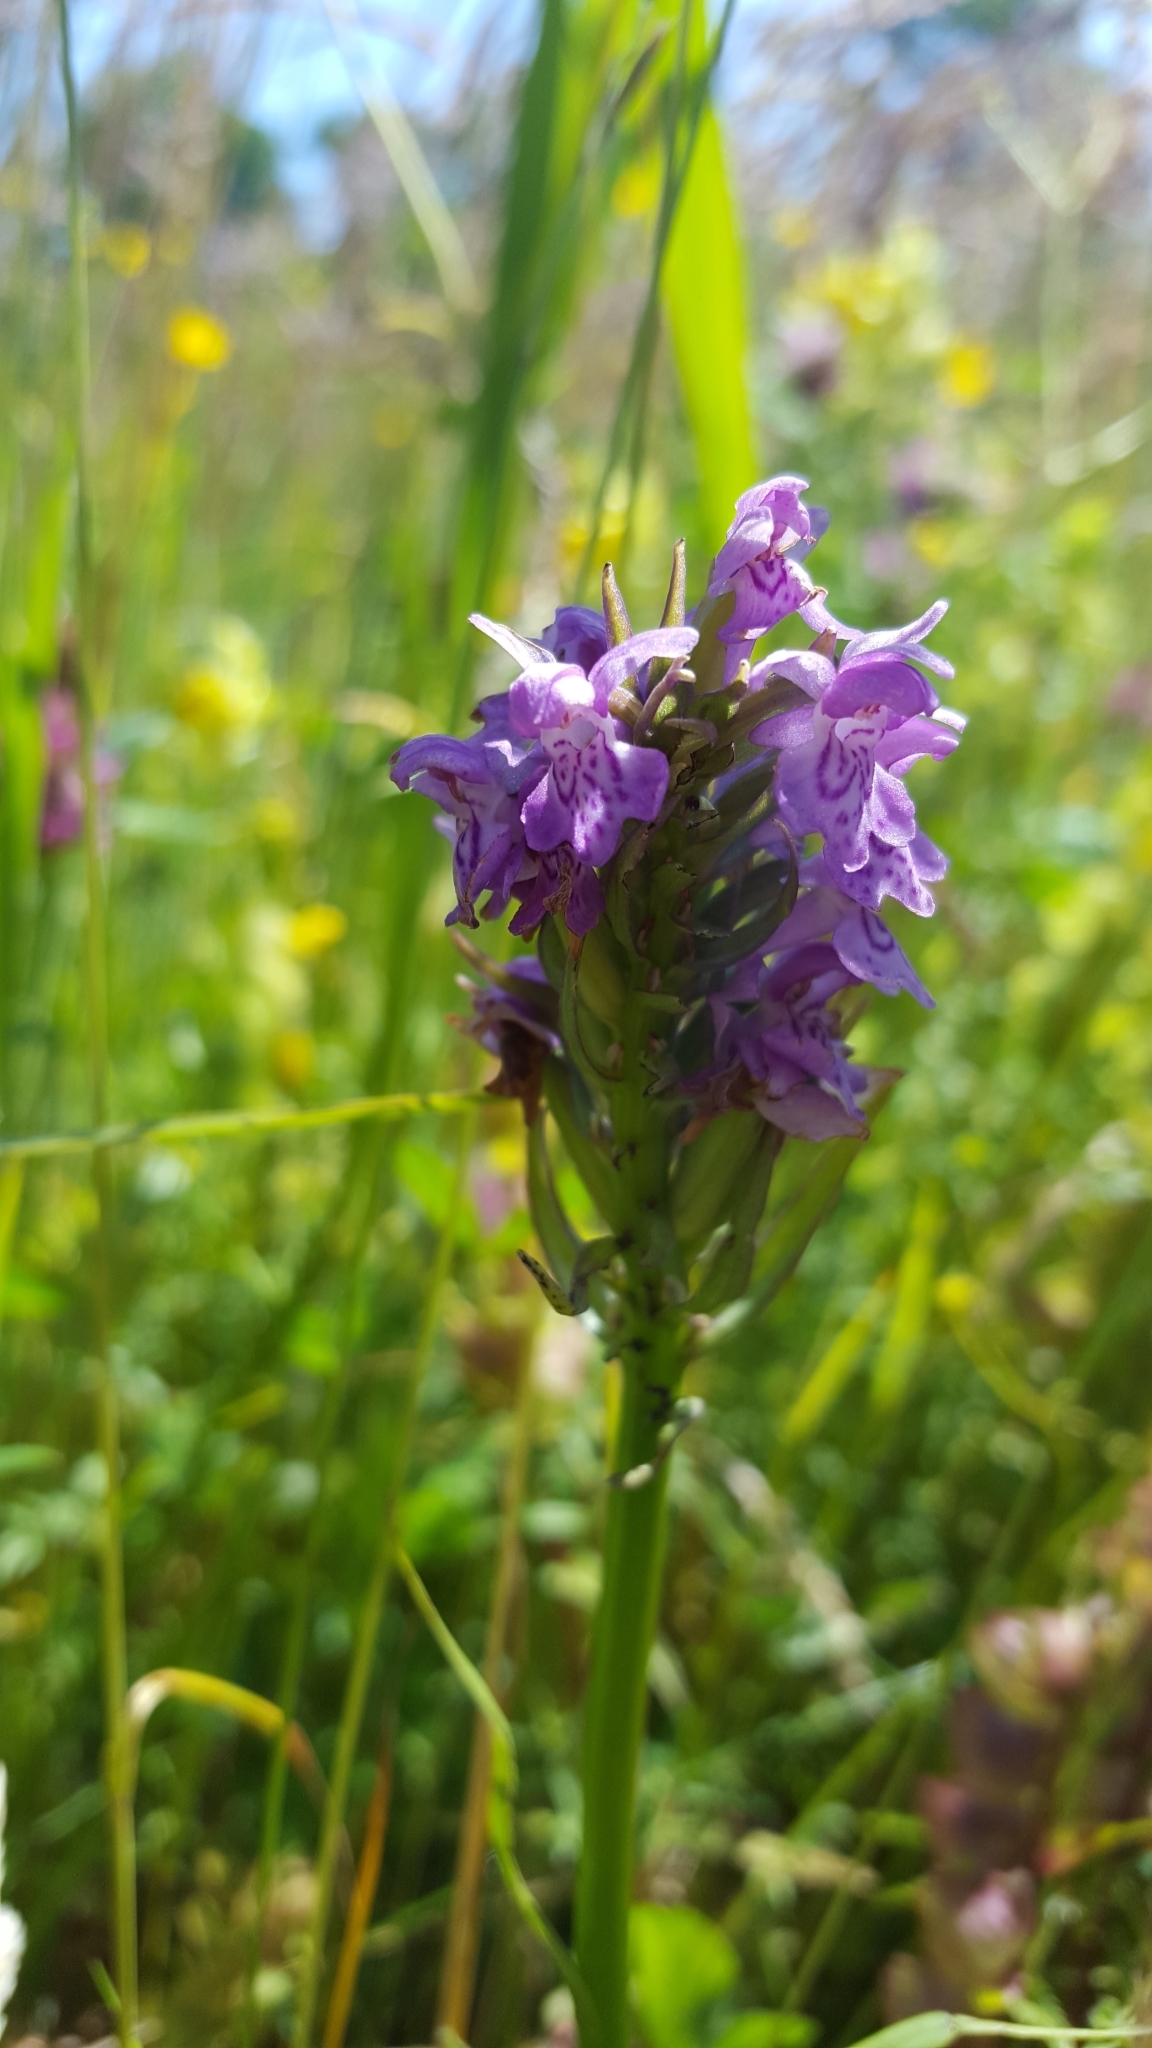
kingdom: Plantae
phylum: Tracheophyta
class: Liliopsida
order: Asparagales
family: Orchidaceae
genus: Dactylorhiza
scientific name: Dactylorhiza majalis
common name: Marsh orchid
